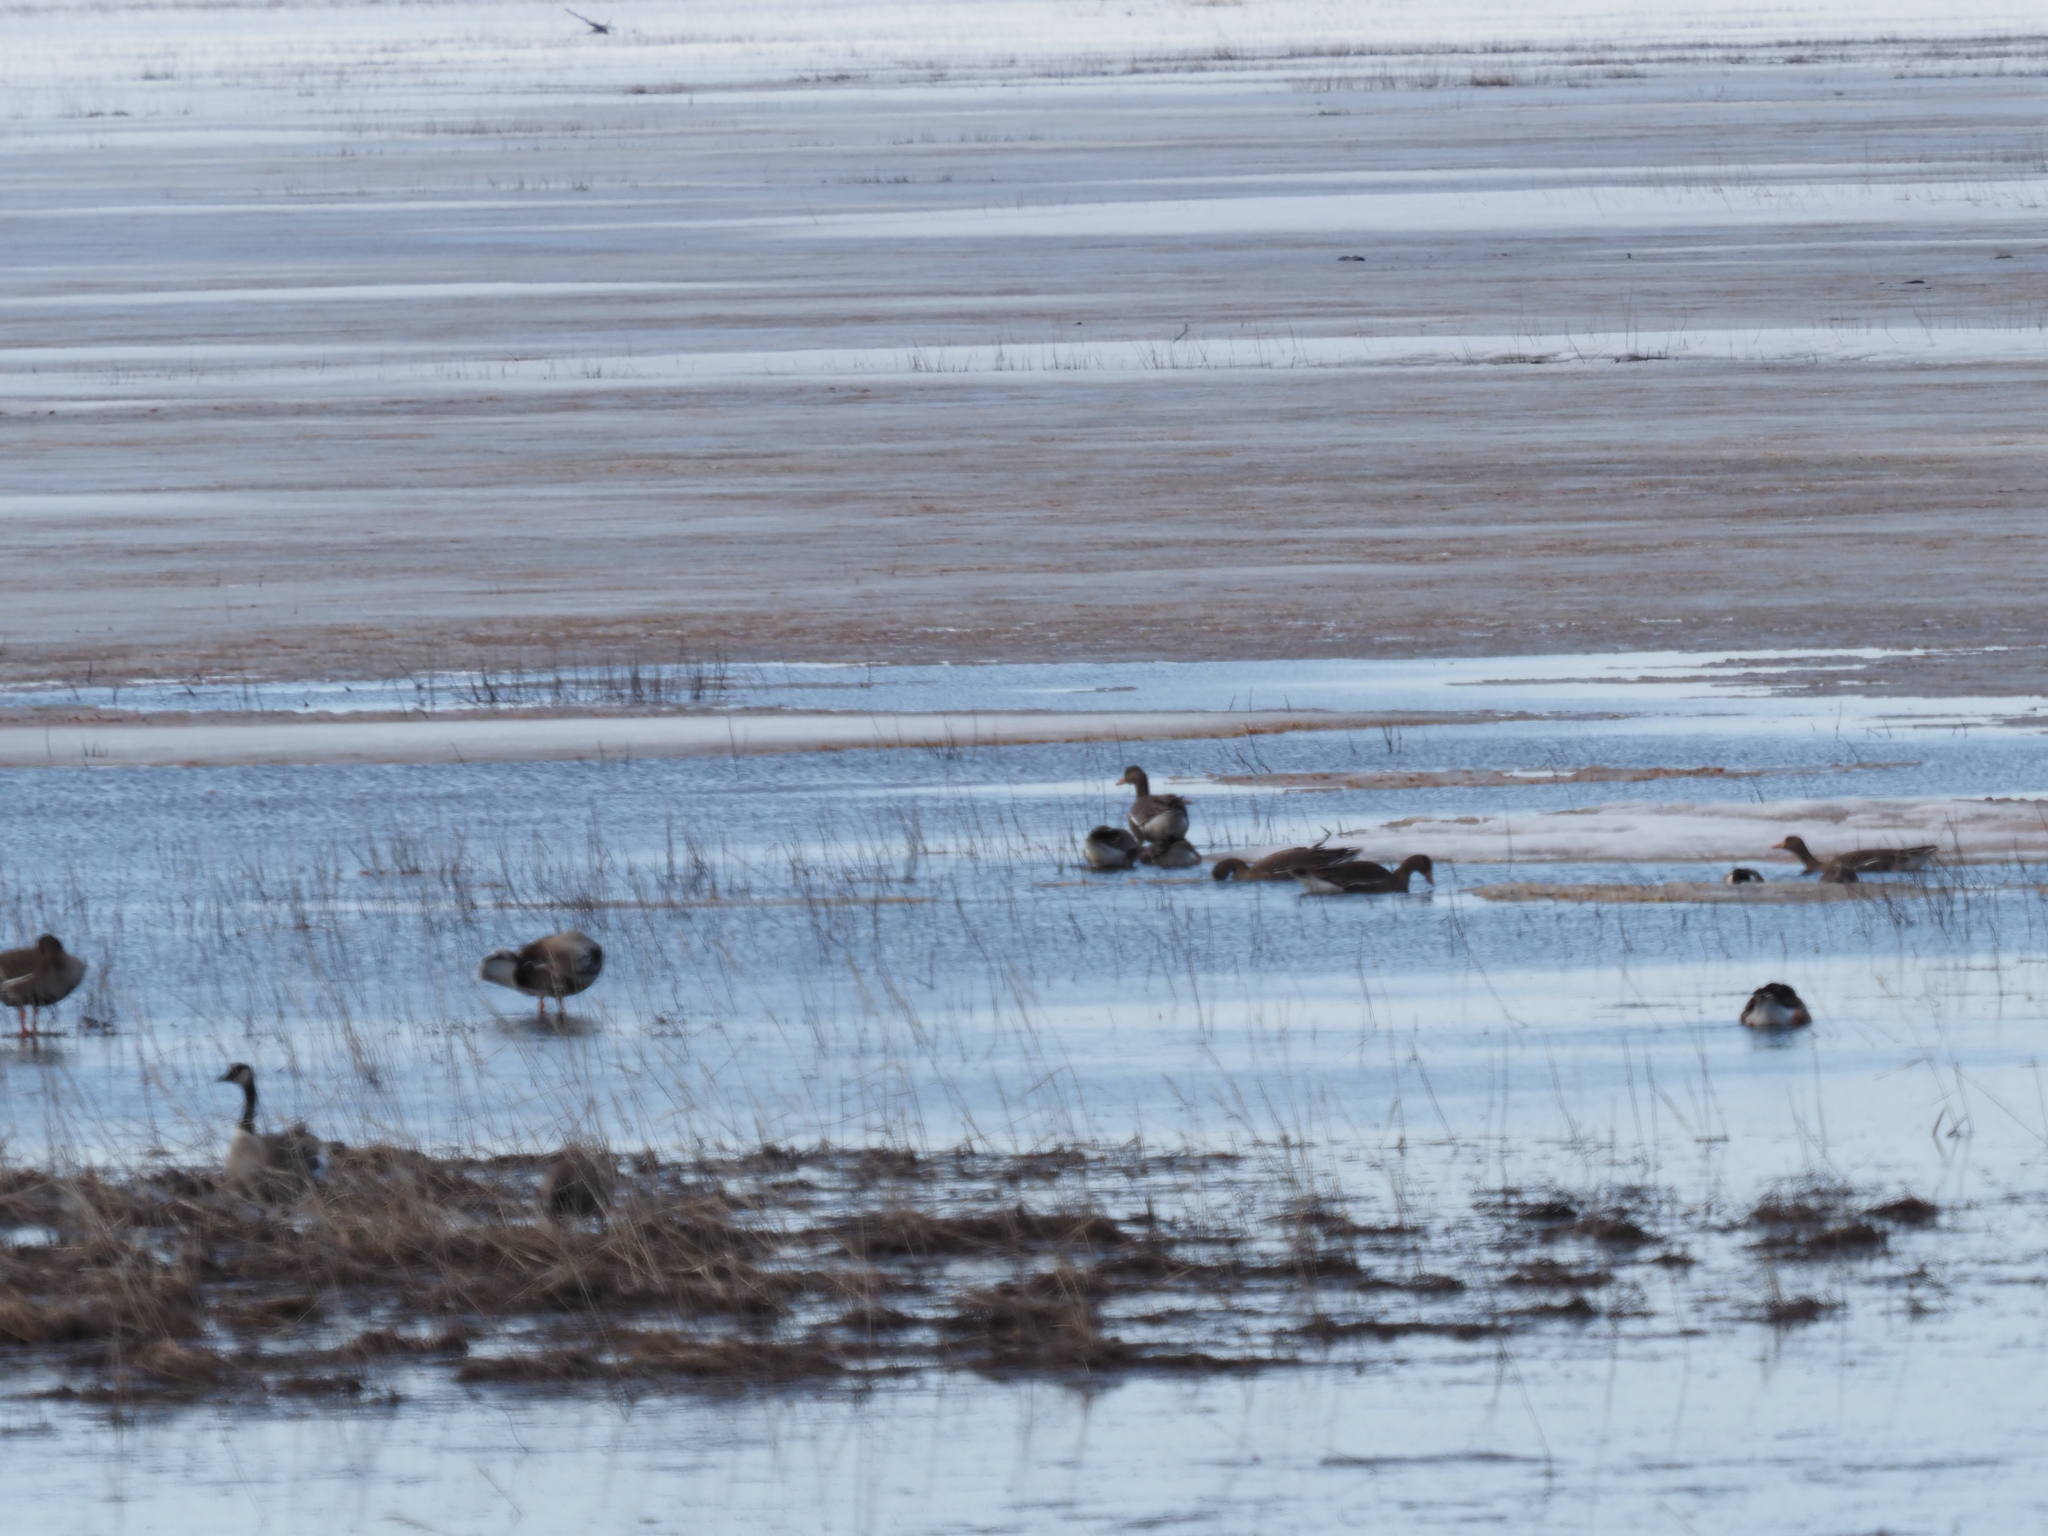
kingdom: Animalia
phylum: Chordata
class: Aves
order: Anseriformes
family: Anatidae
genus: Anser
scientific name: Anser albifrons
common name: Greater white-fronted goose
